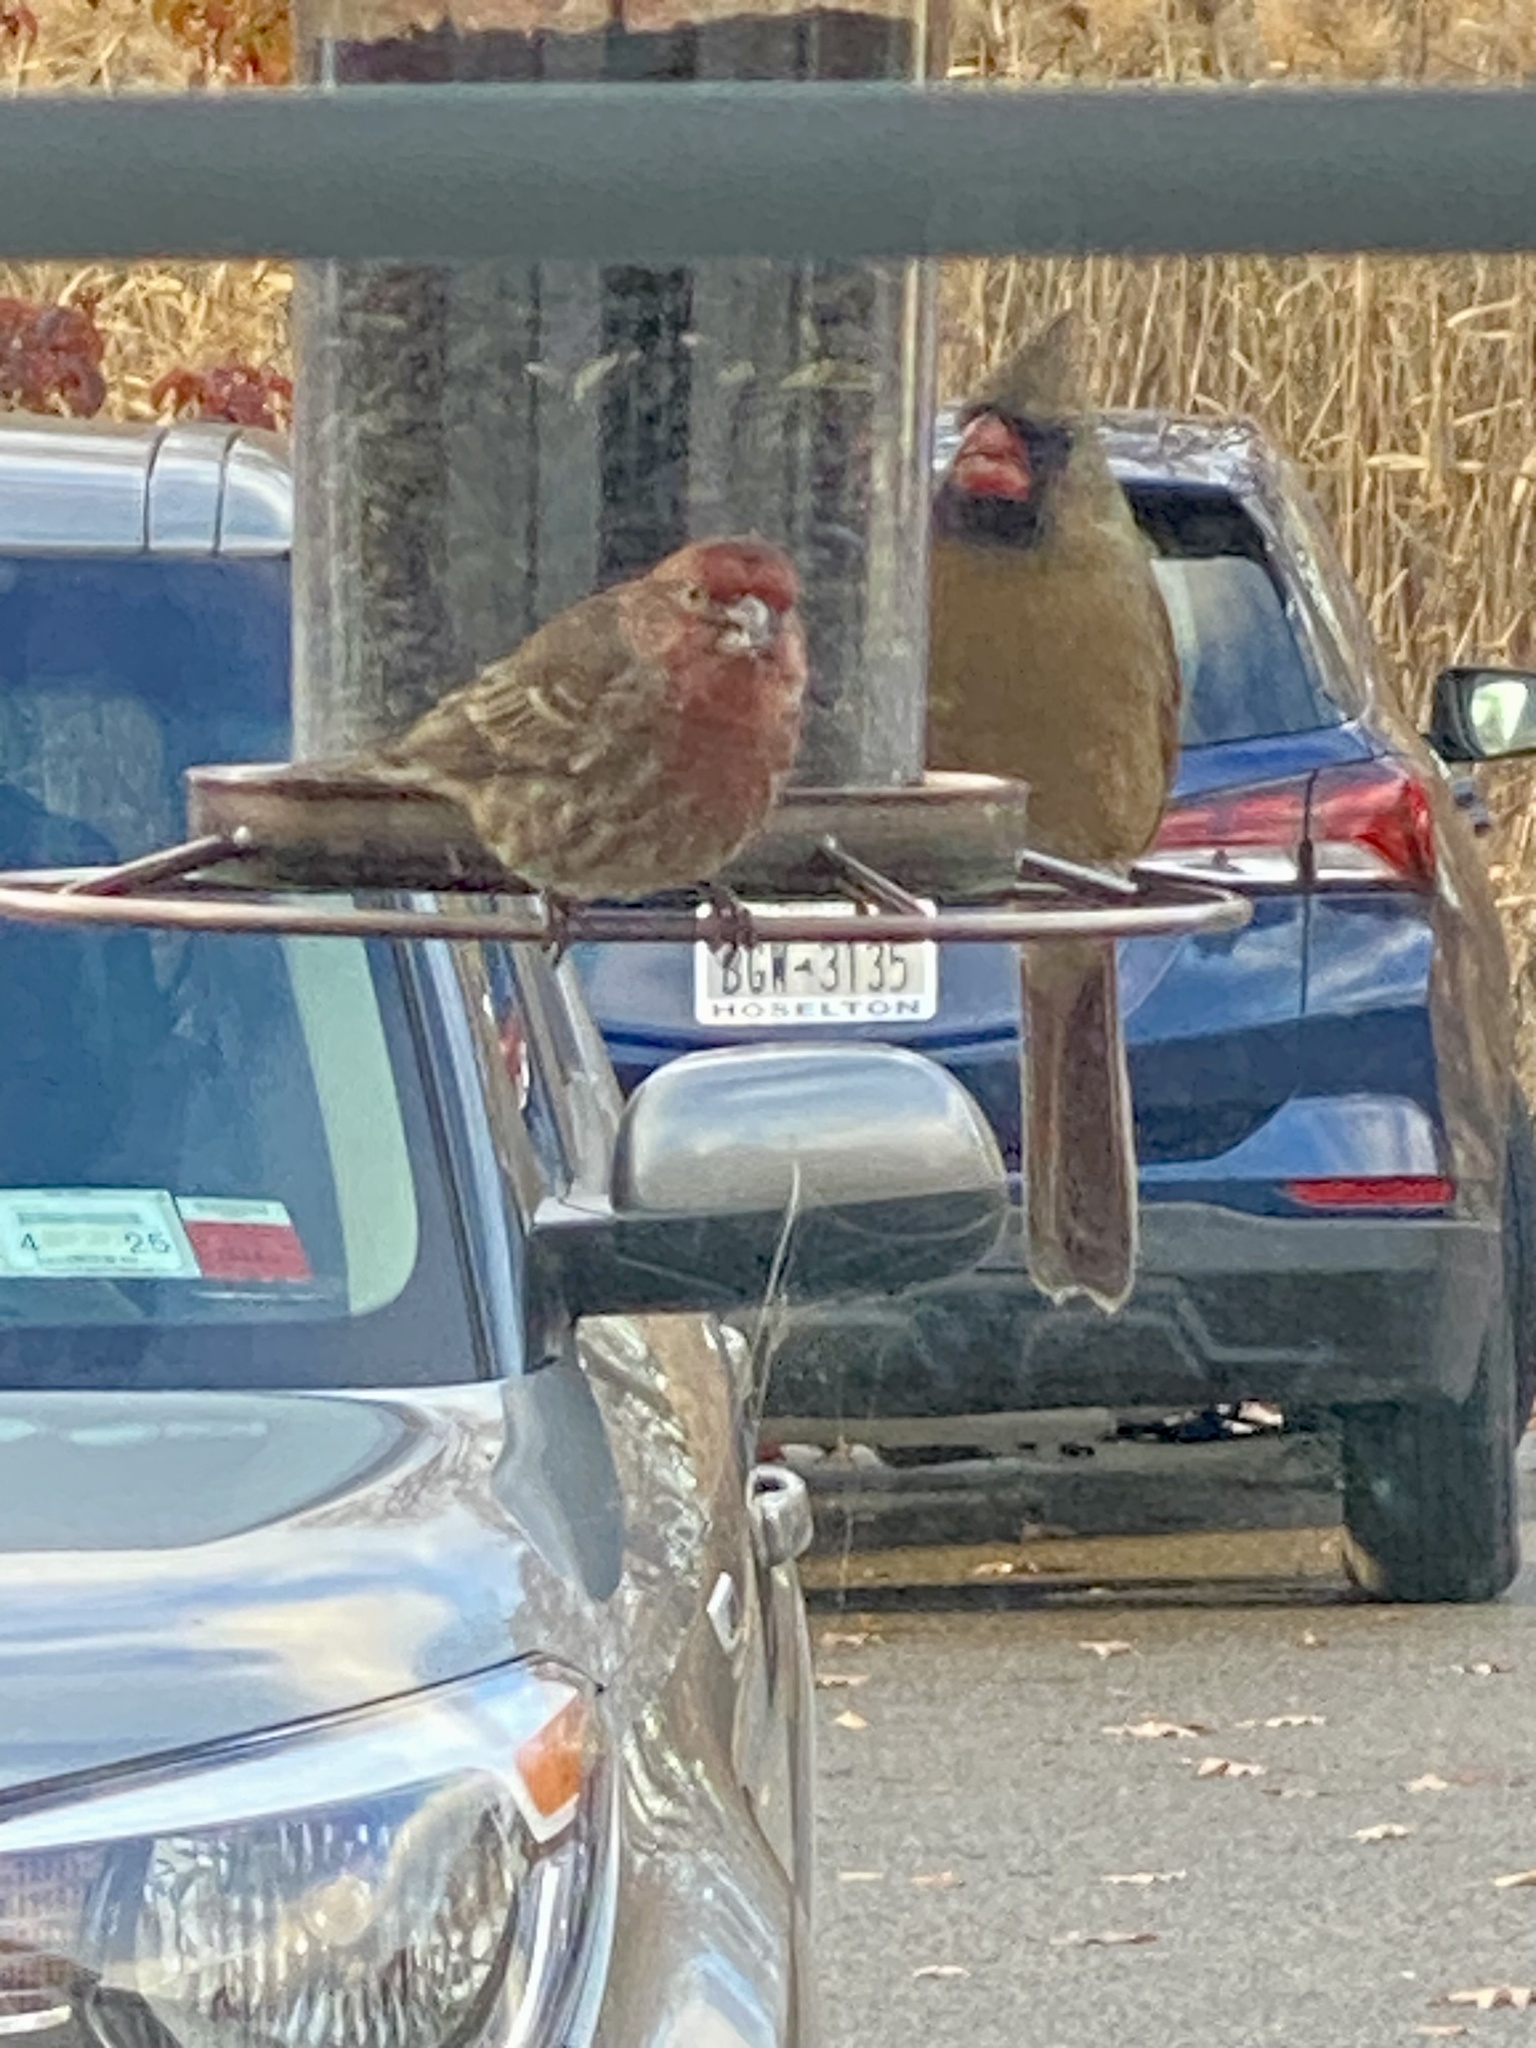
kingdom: Animalia
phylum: Chordata
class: Aves
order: Passeriformes
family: Fringillidae
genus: Haemorhous
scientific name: Haemorhous mexicanus
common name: House finch
